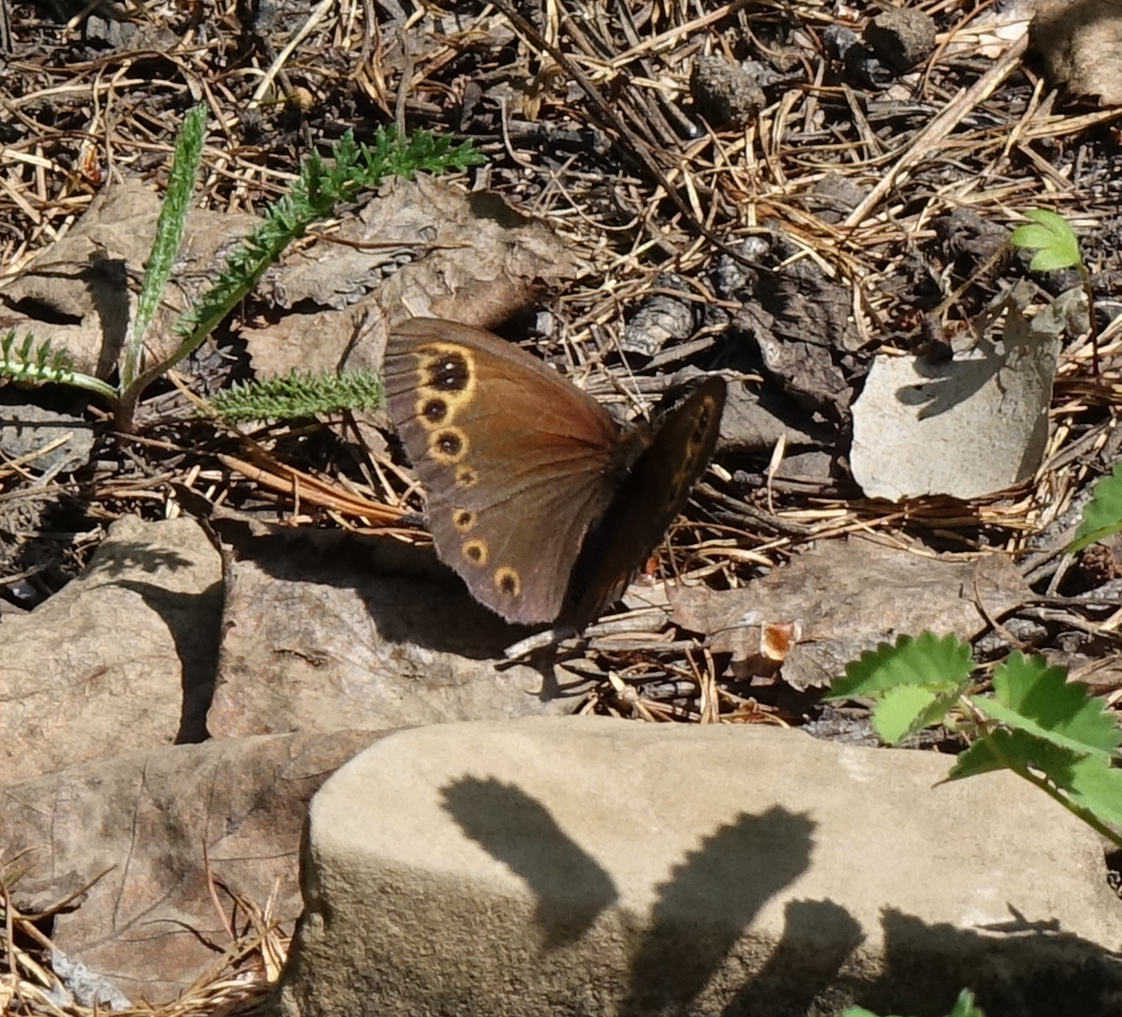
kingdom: Animalia
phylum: Arthropoda
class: Insecta
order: Lepidoptera
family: Nymphalidae
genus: Erebia
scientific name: Erebia embla
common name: Lapland ringlet
